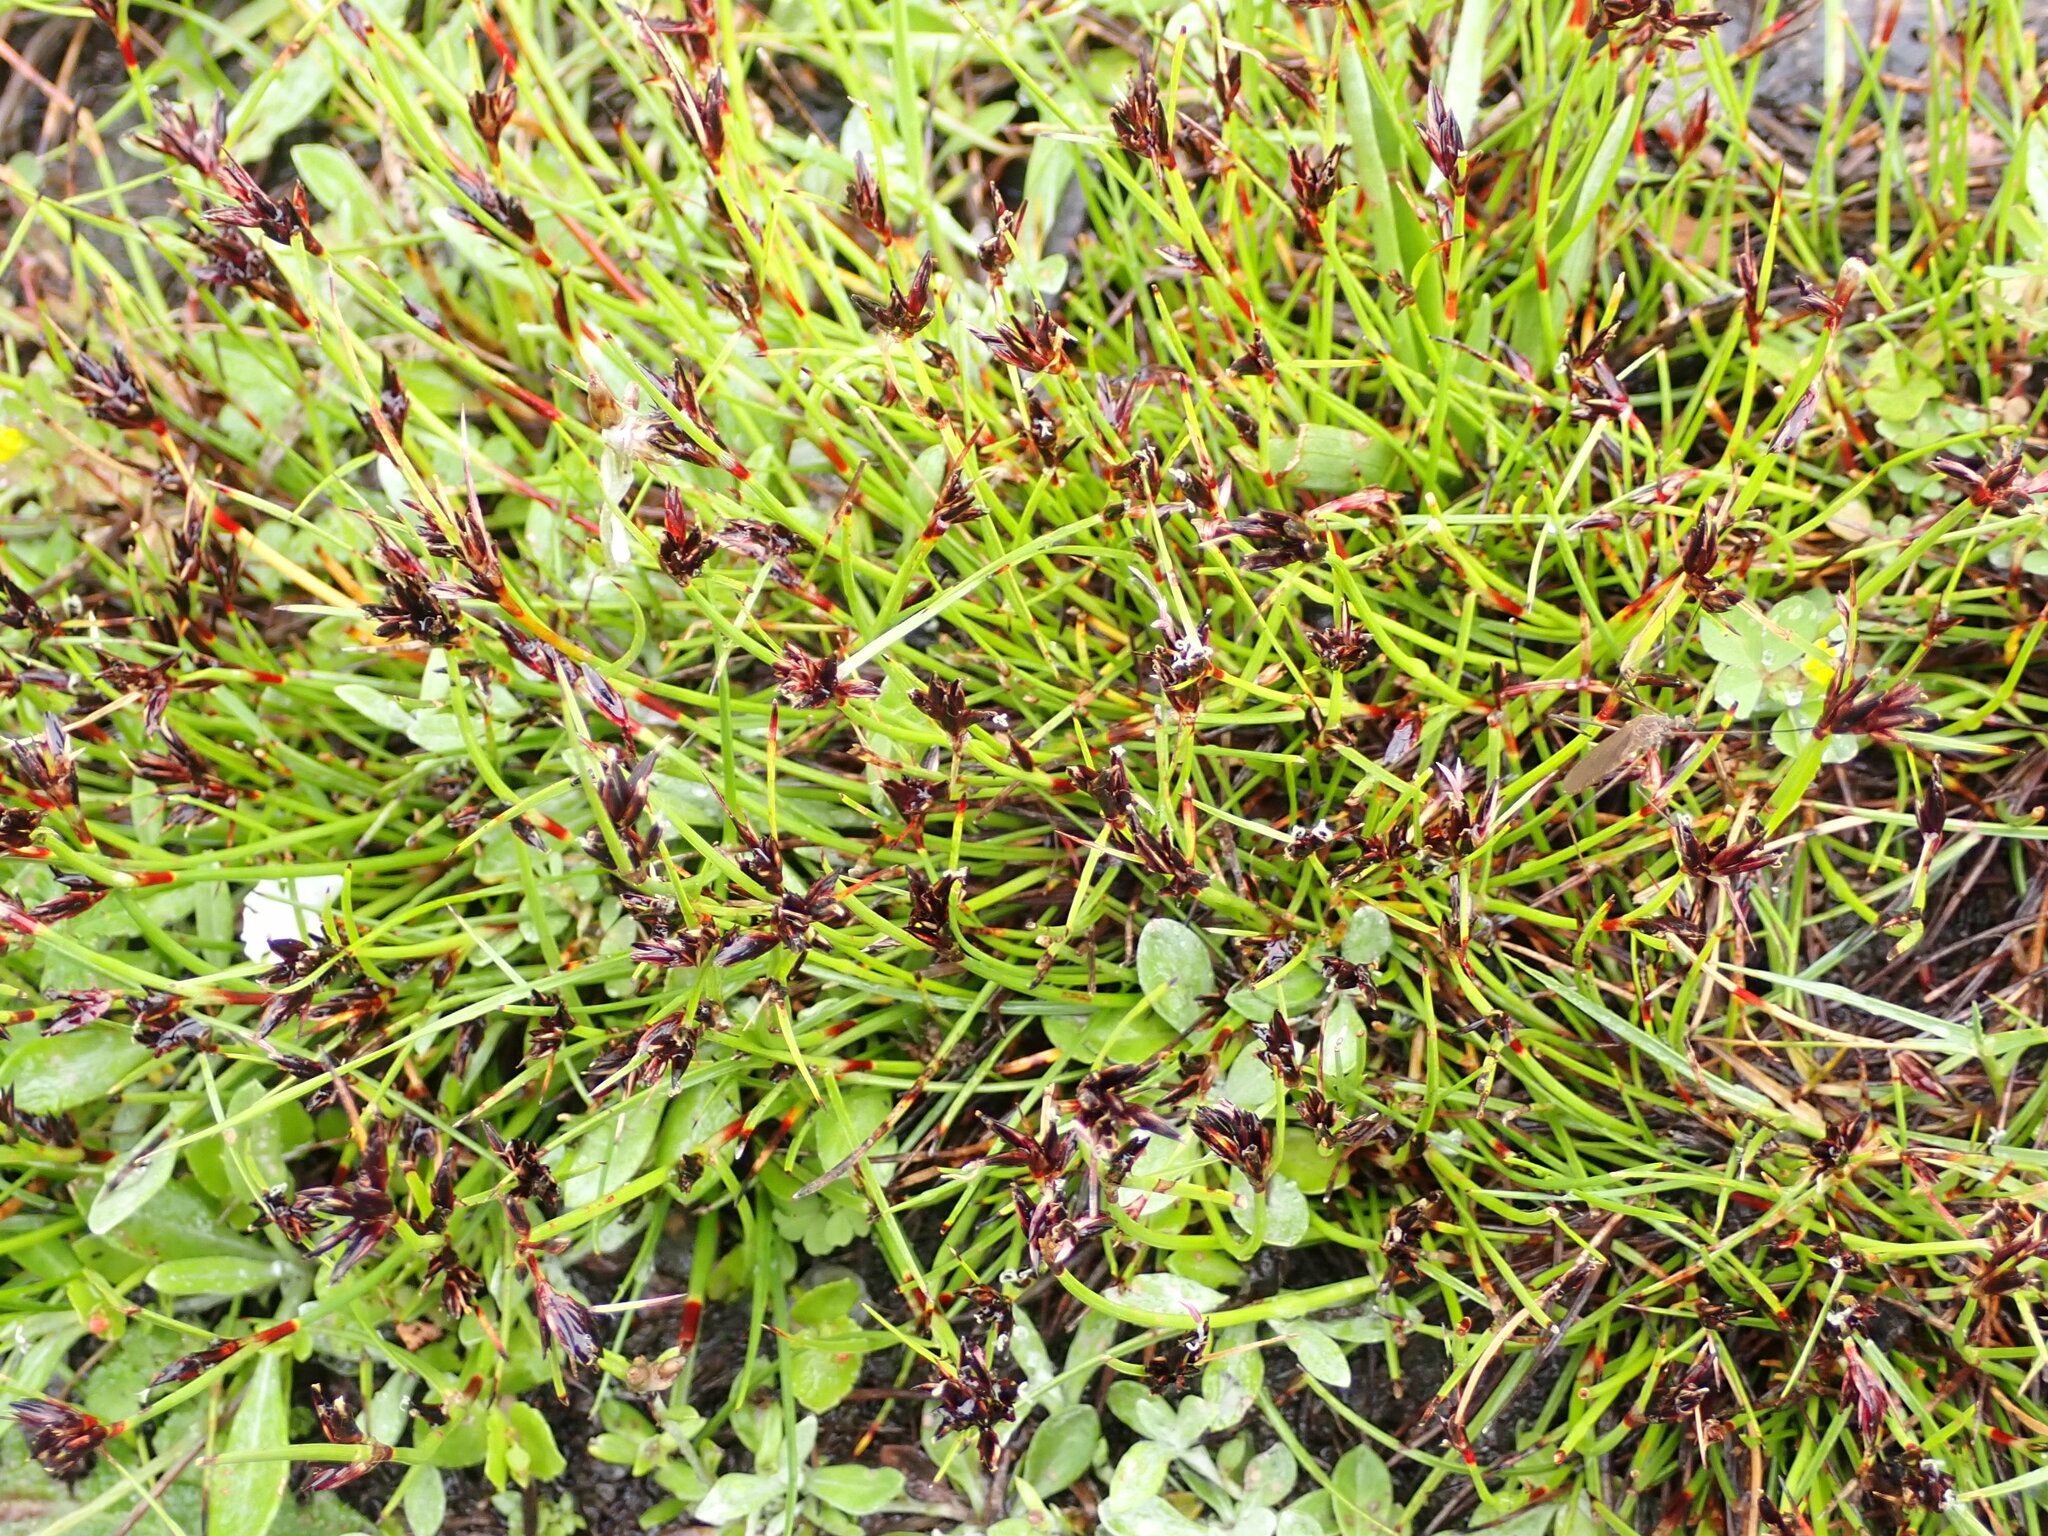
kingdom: Plantae
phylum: Tracheophyta
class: Liliopsida
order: Poales
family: Cyperaceae
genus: Schoenus
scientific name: Schoenus apogon
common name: Smooth bogrush
